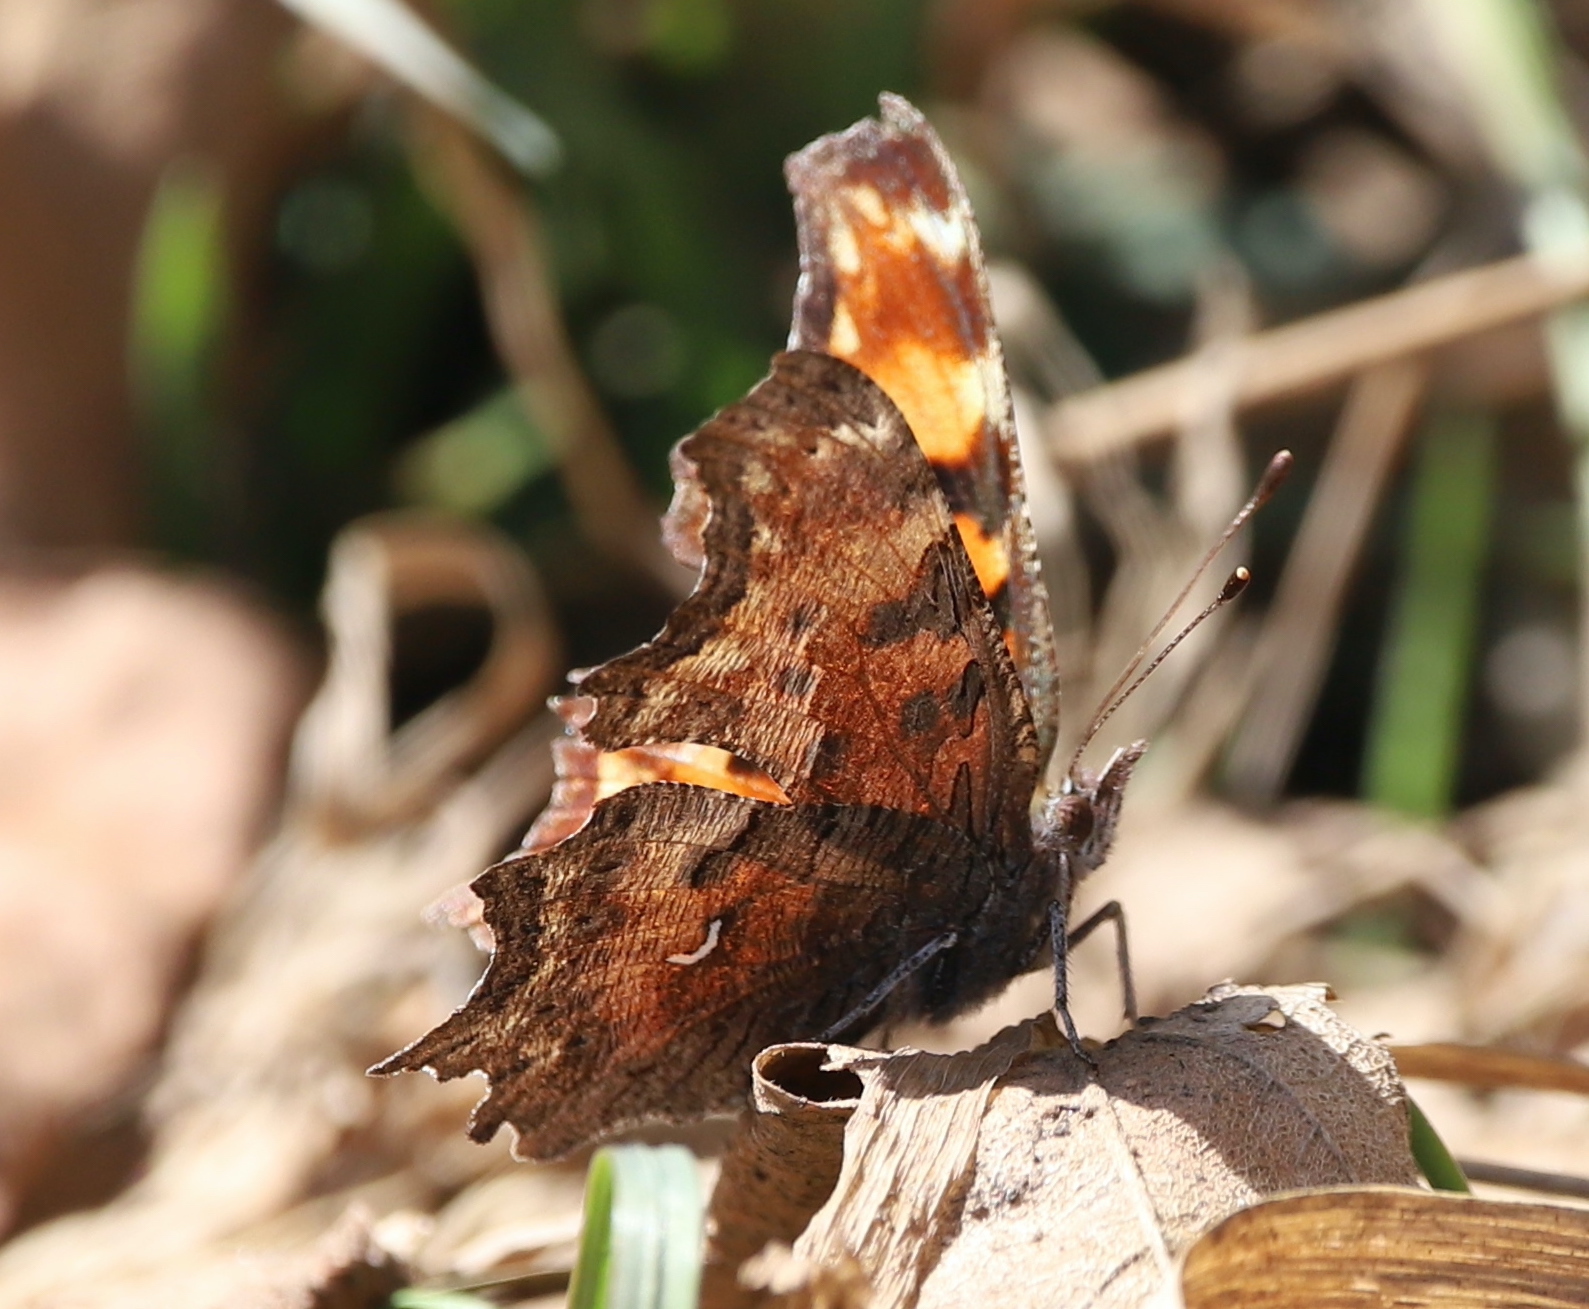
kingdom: Animalia
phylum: Arthropoda
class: Insecta
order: Lepidoptera
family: Nymphalidae
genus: Polygonia
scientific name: Polygonia gracilis
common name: Hoary comma
